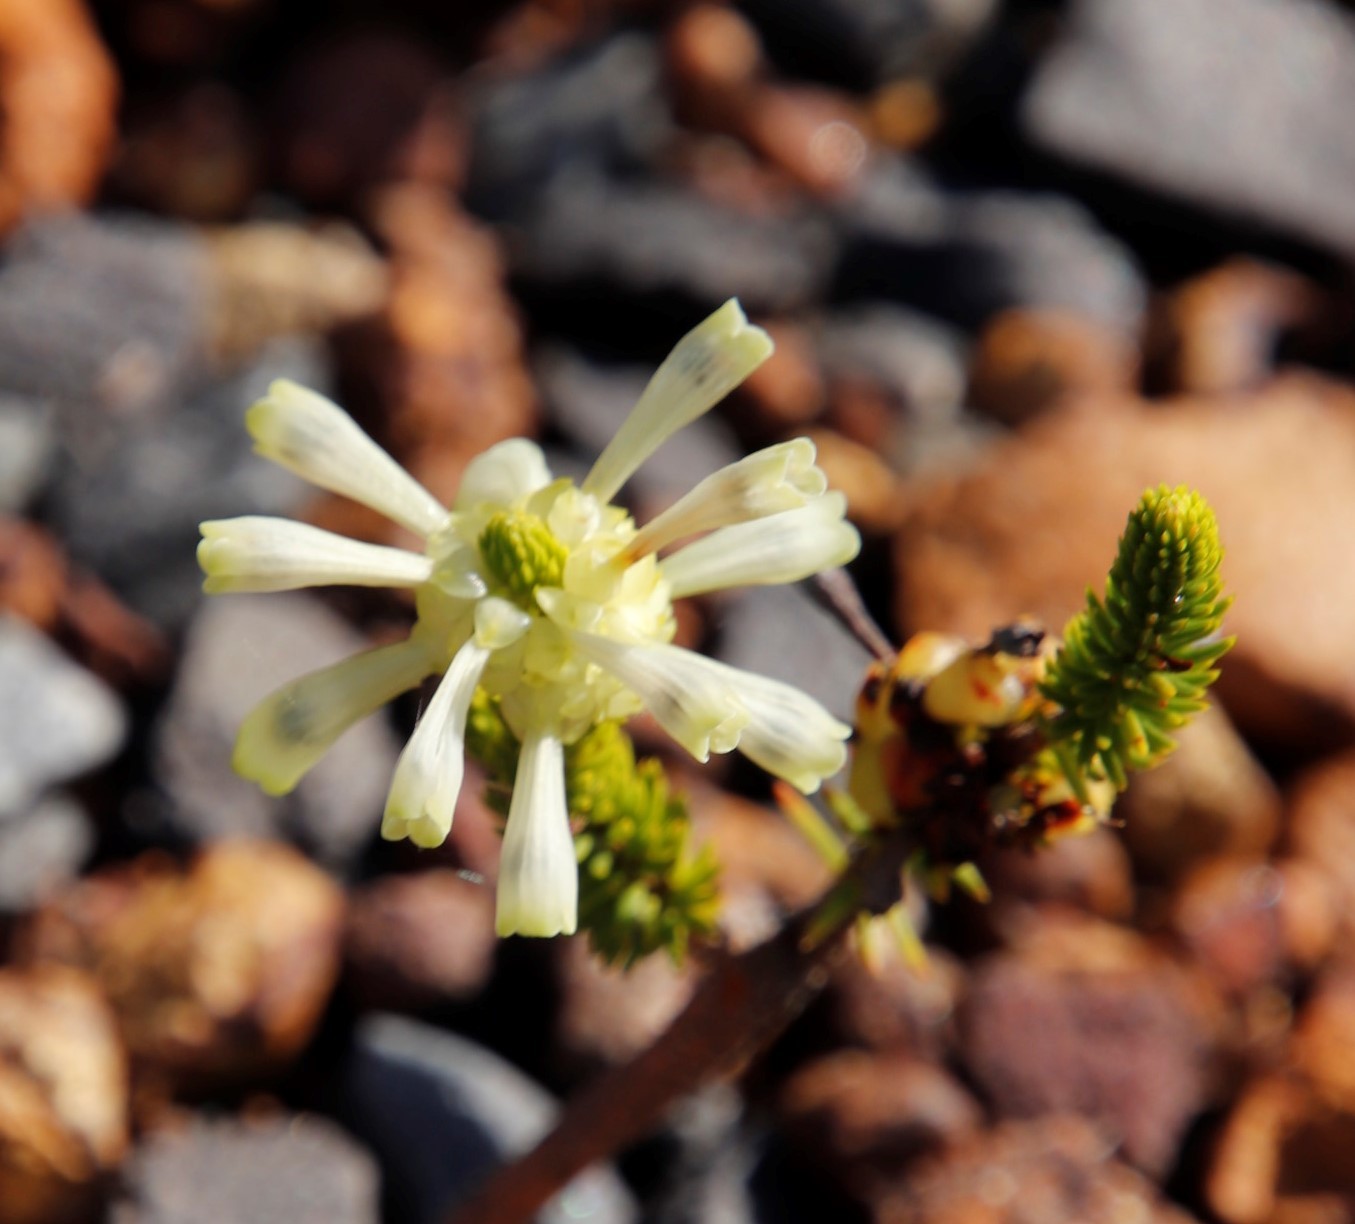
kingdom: Plantae
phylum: Tracheophyta
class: Magnoliopsida
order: Ericales
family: Ericaceae
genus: Erica
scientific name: Erica sessiliflora
